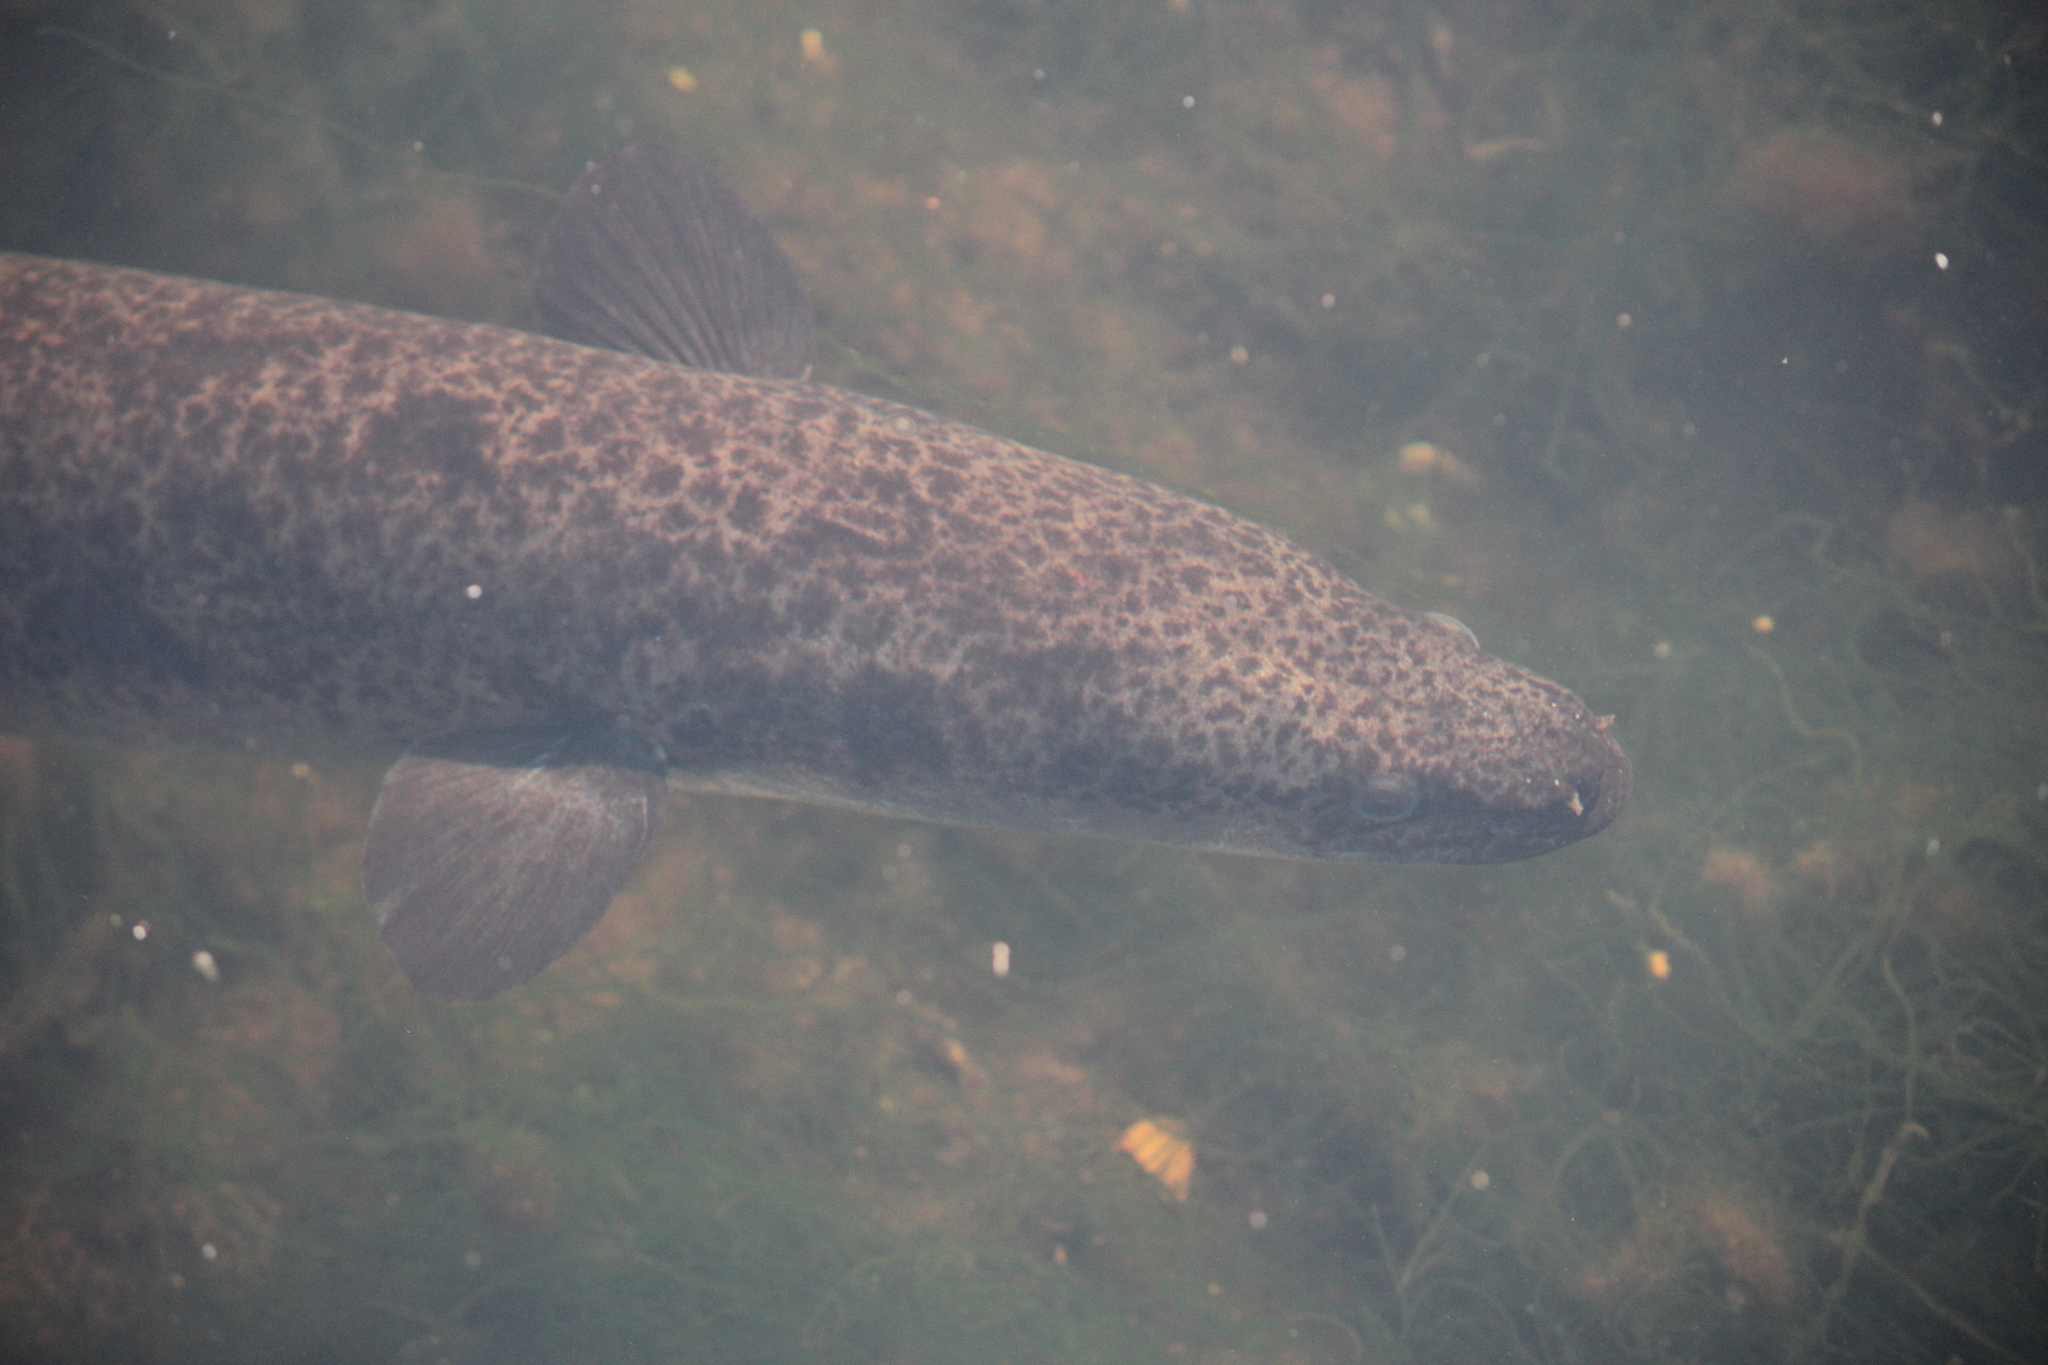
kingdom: Animalia
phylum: Chordata
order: Anguilliformes
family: Anguillidae
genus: Anguilla
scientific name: Anguilla reinhardtii
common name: Longfin eel
